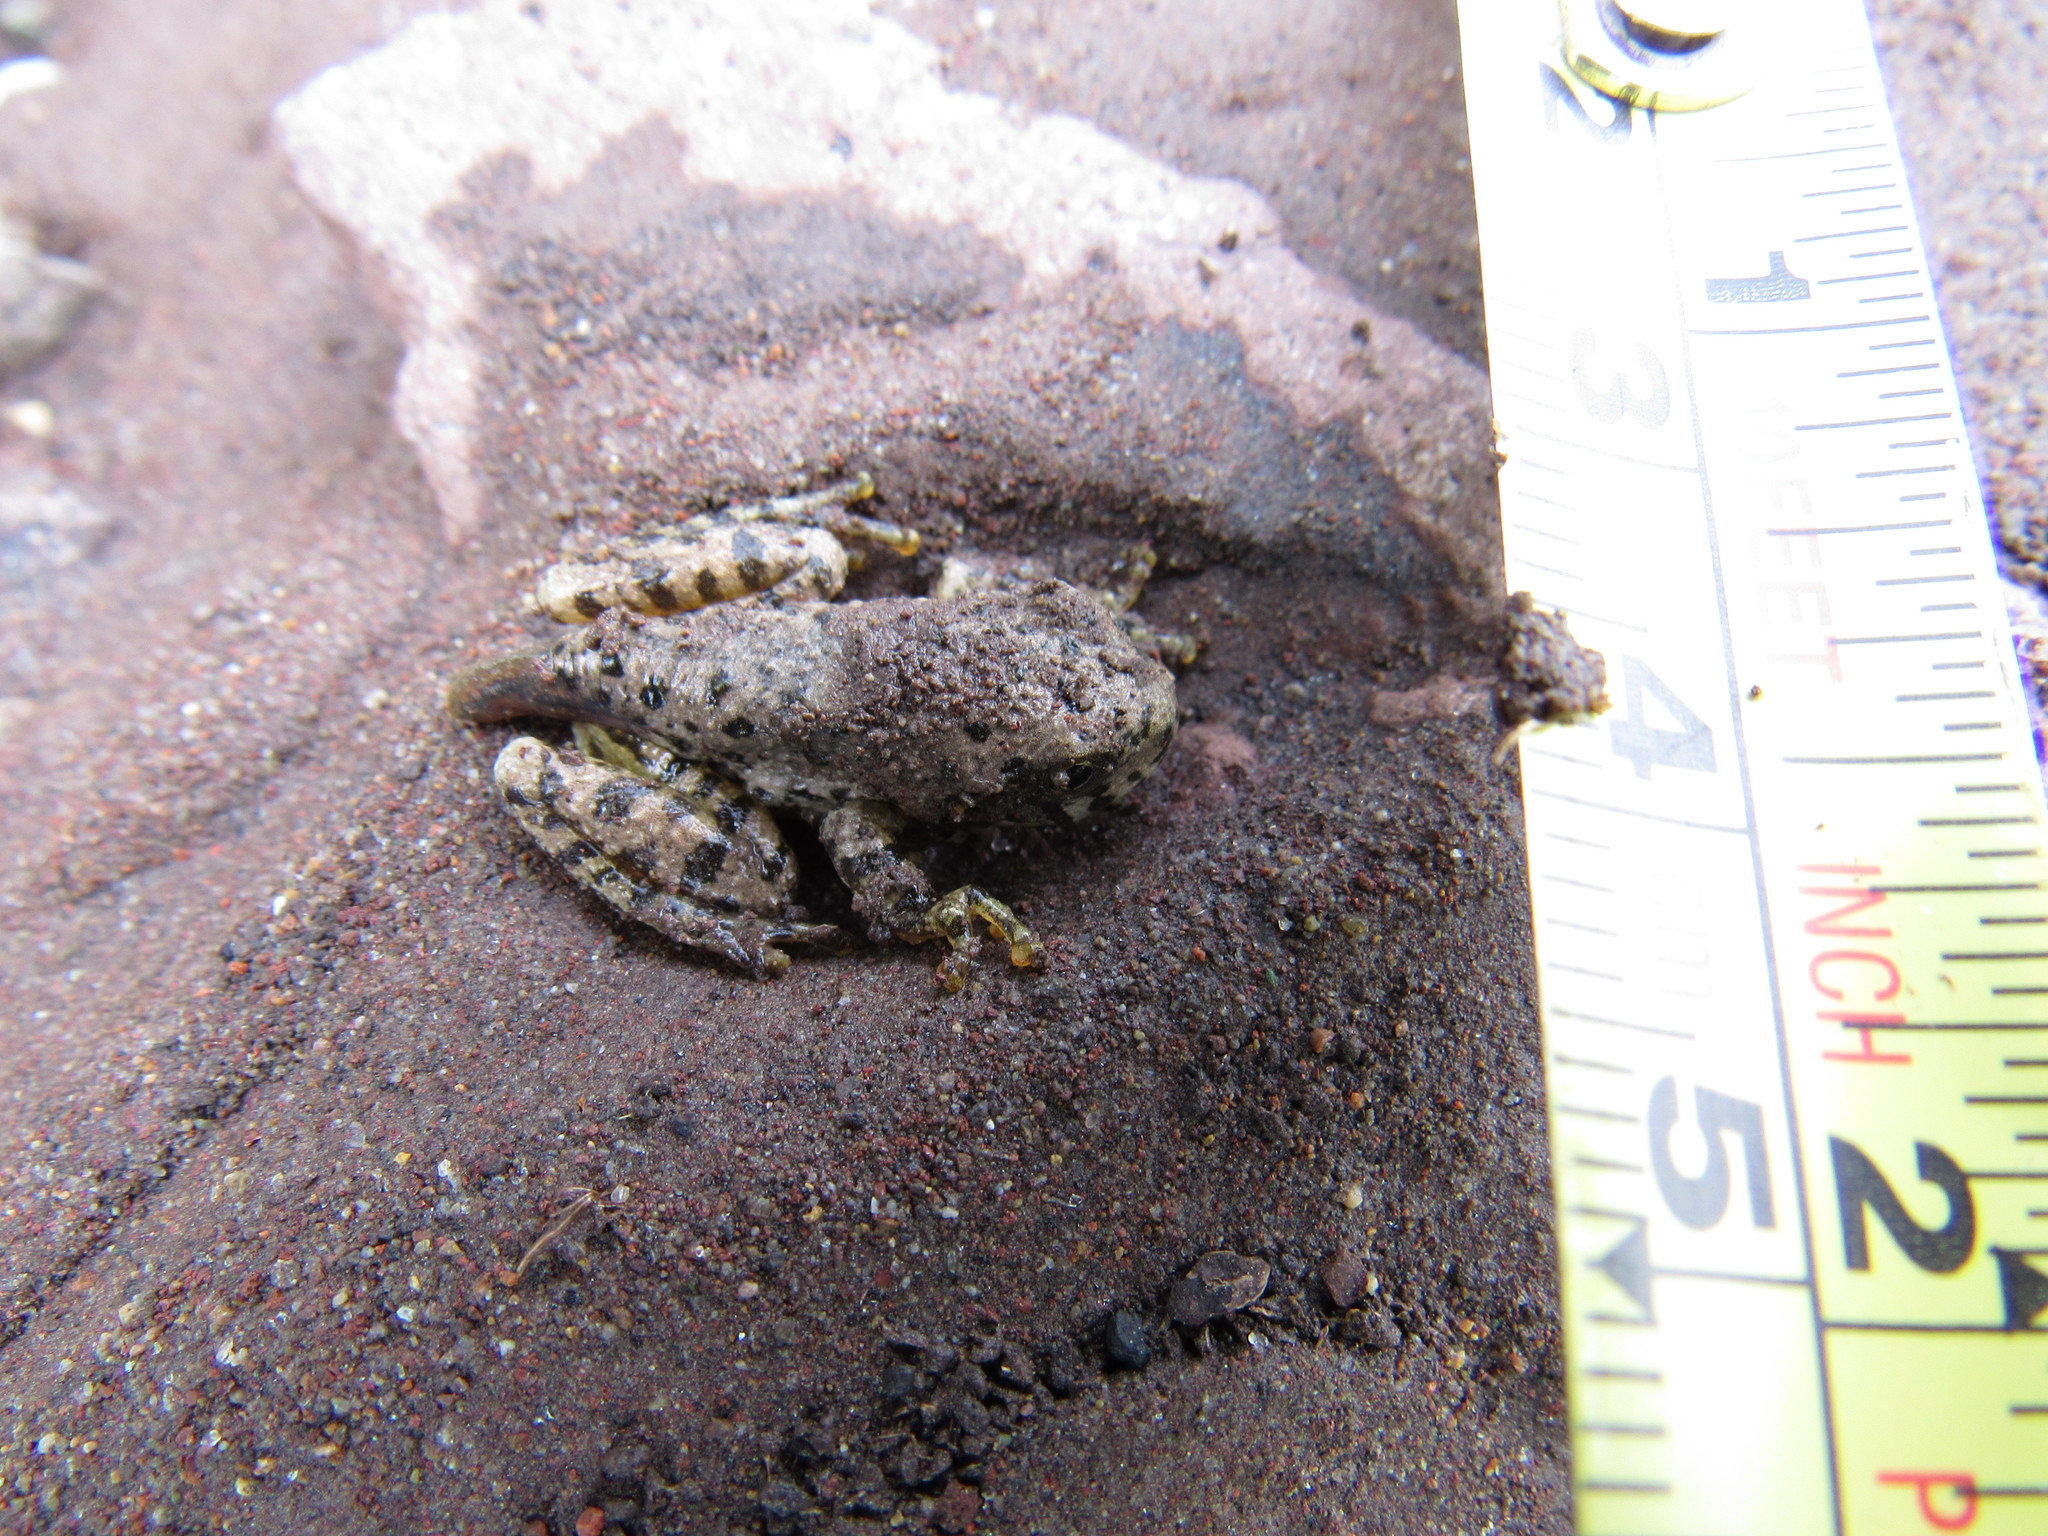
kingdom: Animalia
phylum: Chordata
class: Amphibia
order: Anura
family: Hylidae
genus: Dryophytes
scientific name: Dryophytes arenicolor
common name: Canyon treefrog
